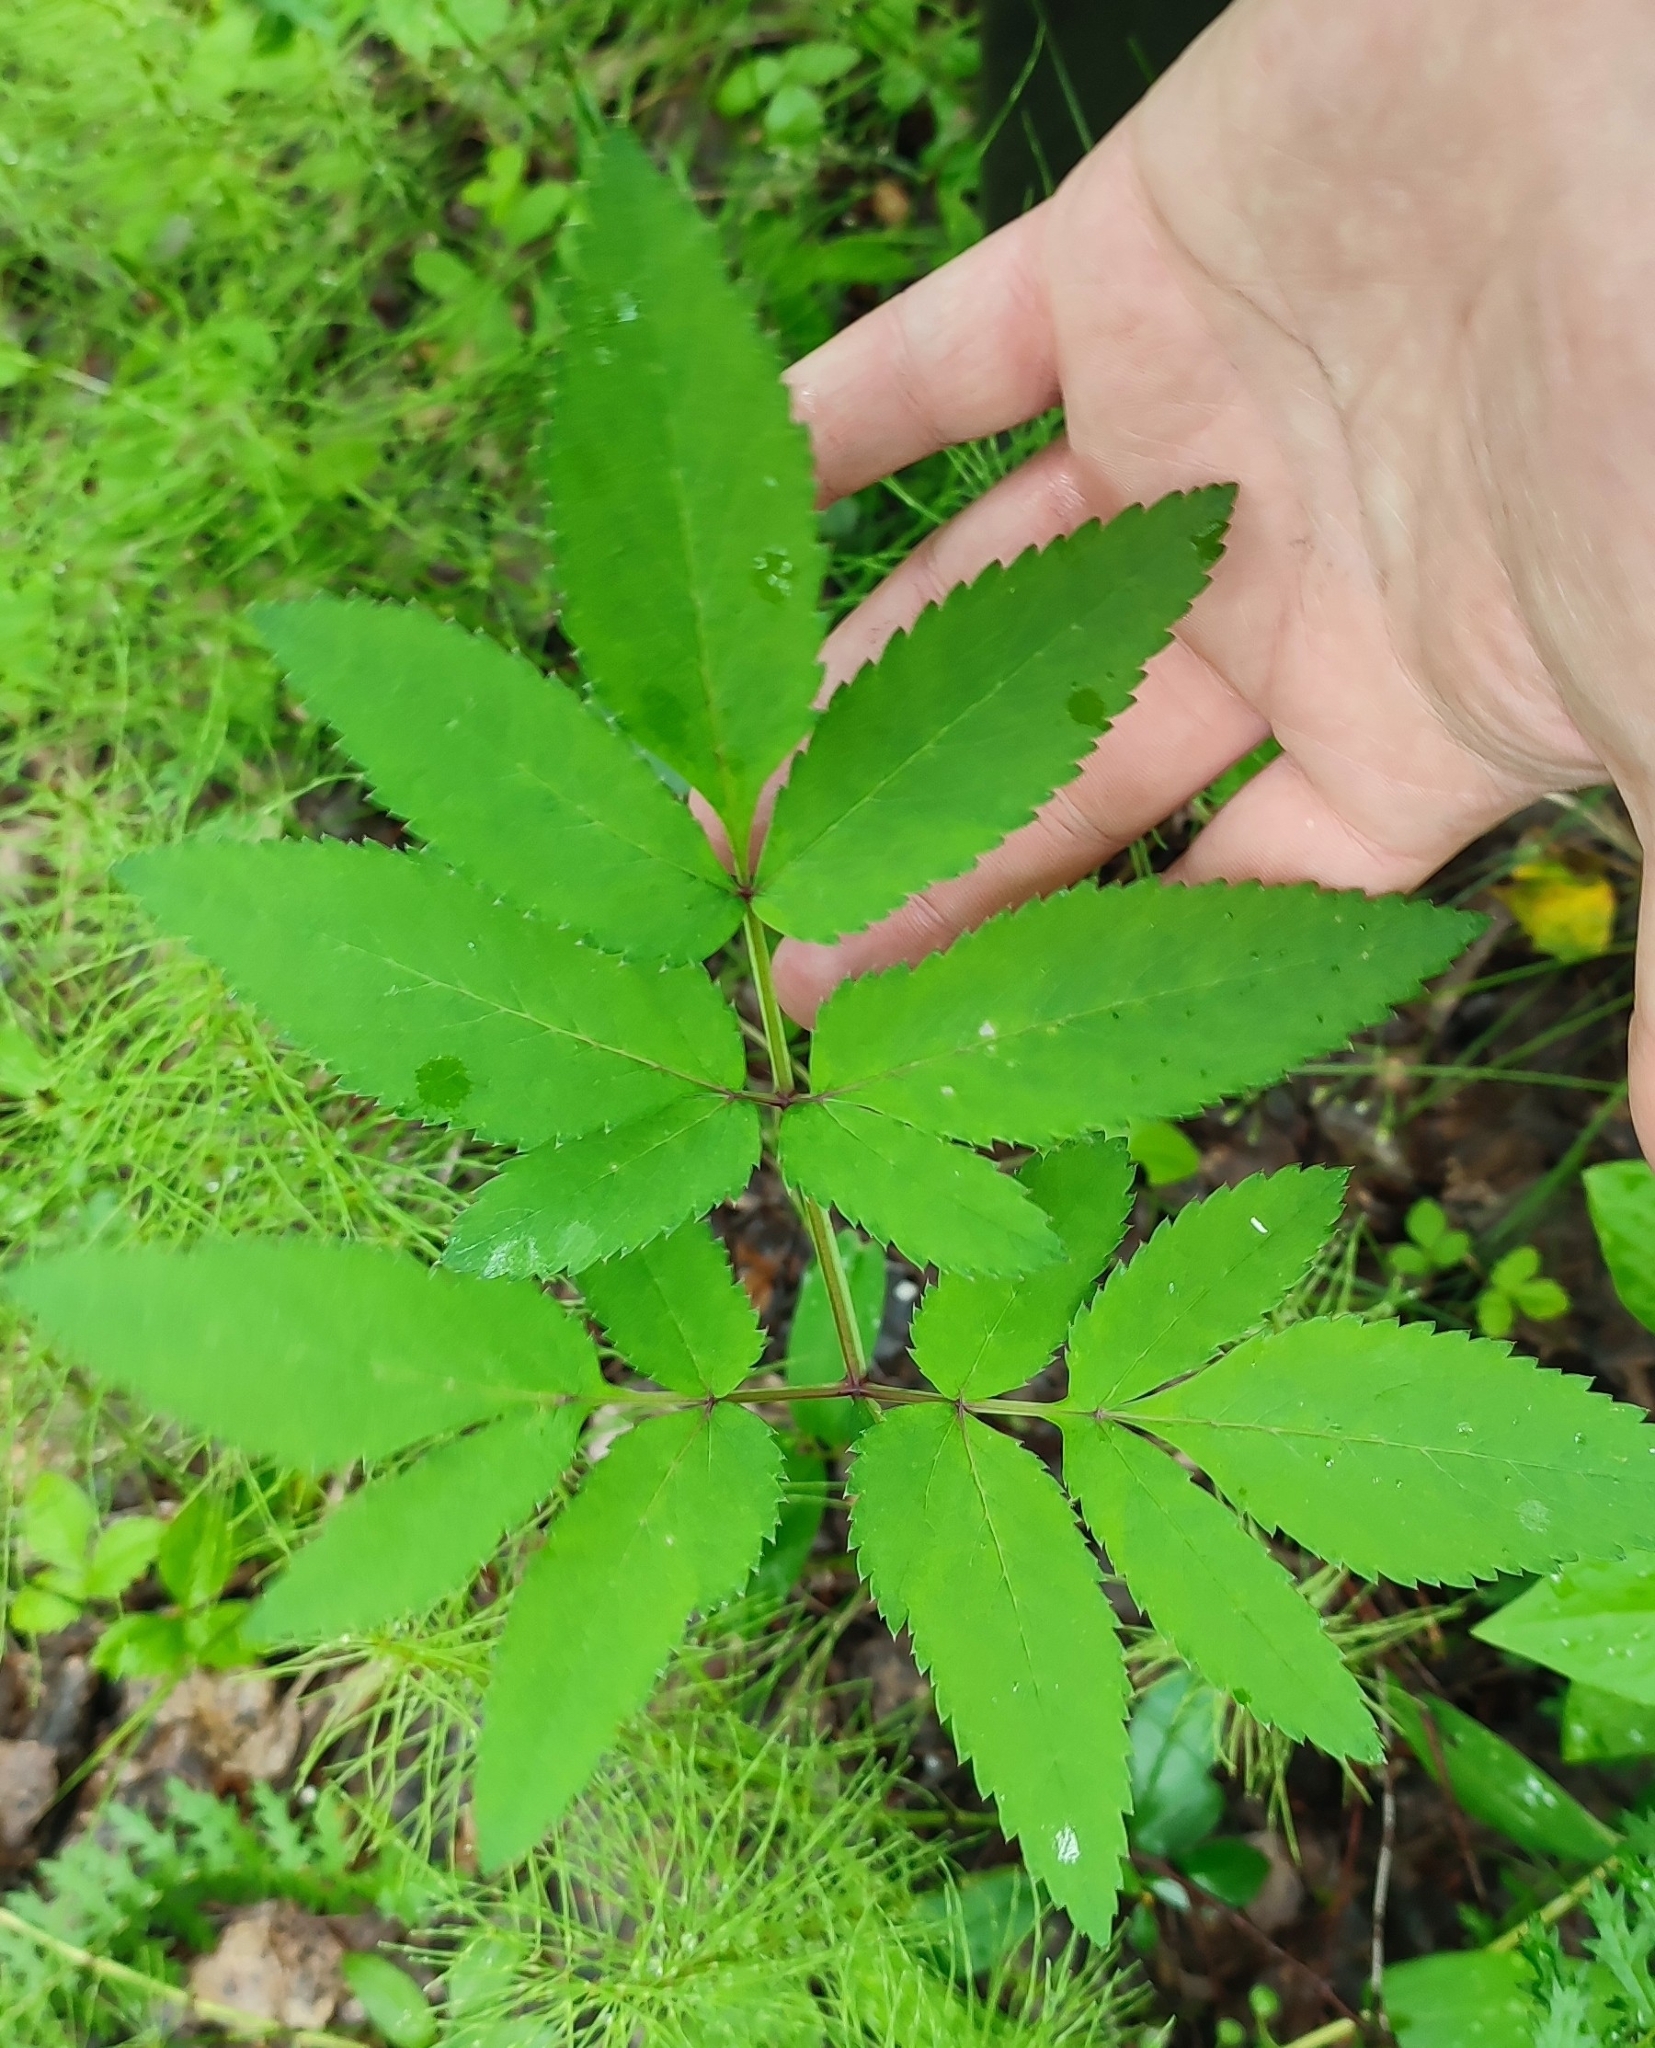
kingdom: Plantae
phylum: Tracheophyta
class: Magnoliopsida
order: Apiales
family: Apiaceae
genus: Angelica
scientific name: Angelica sylvestris
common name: Wild angelica
